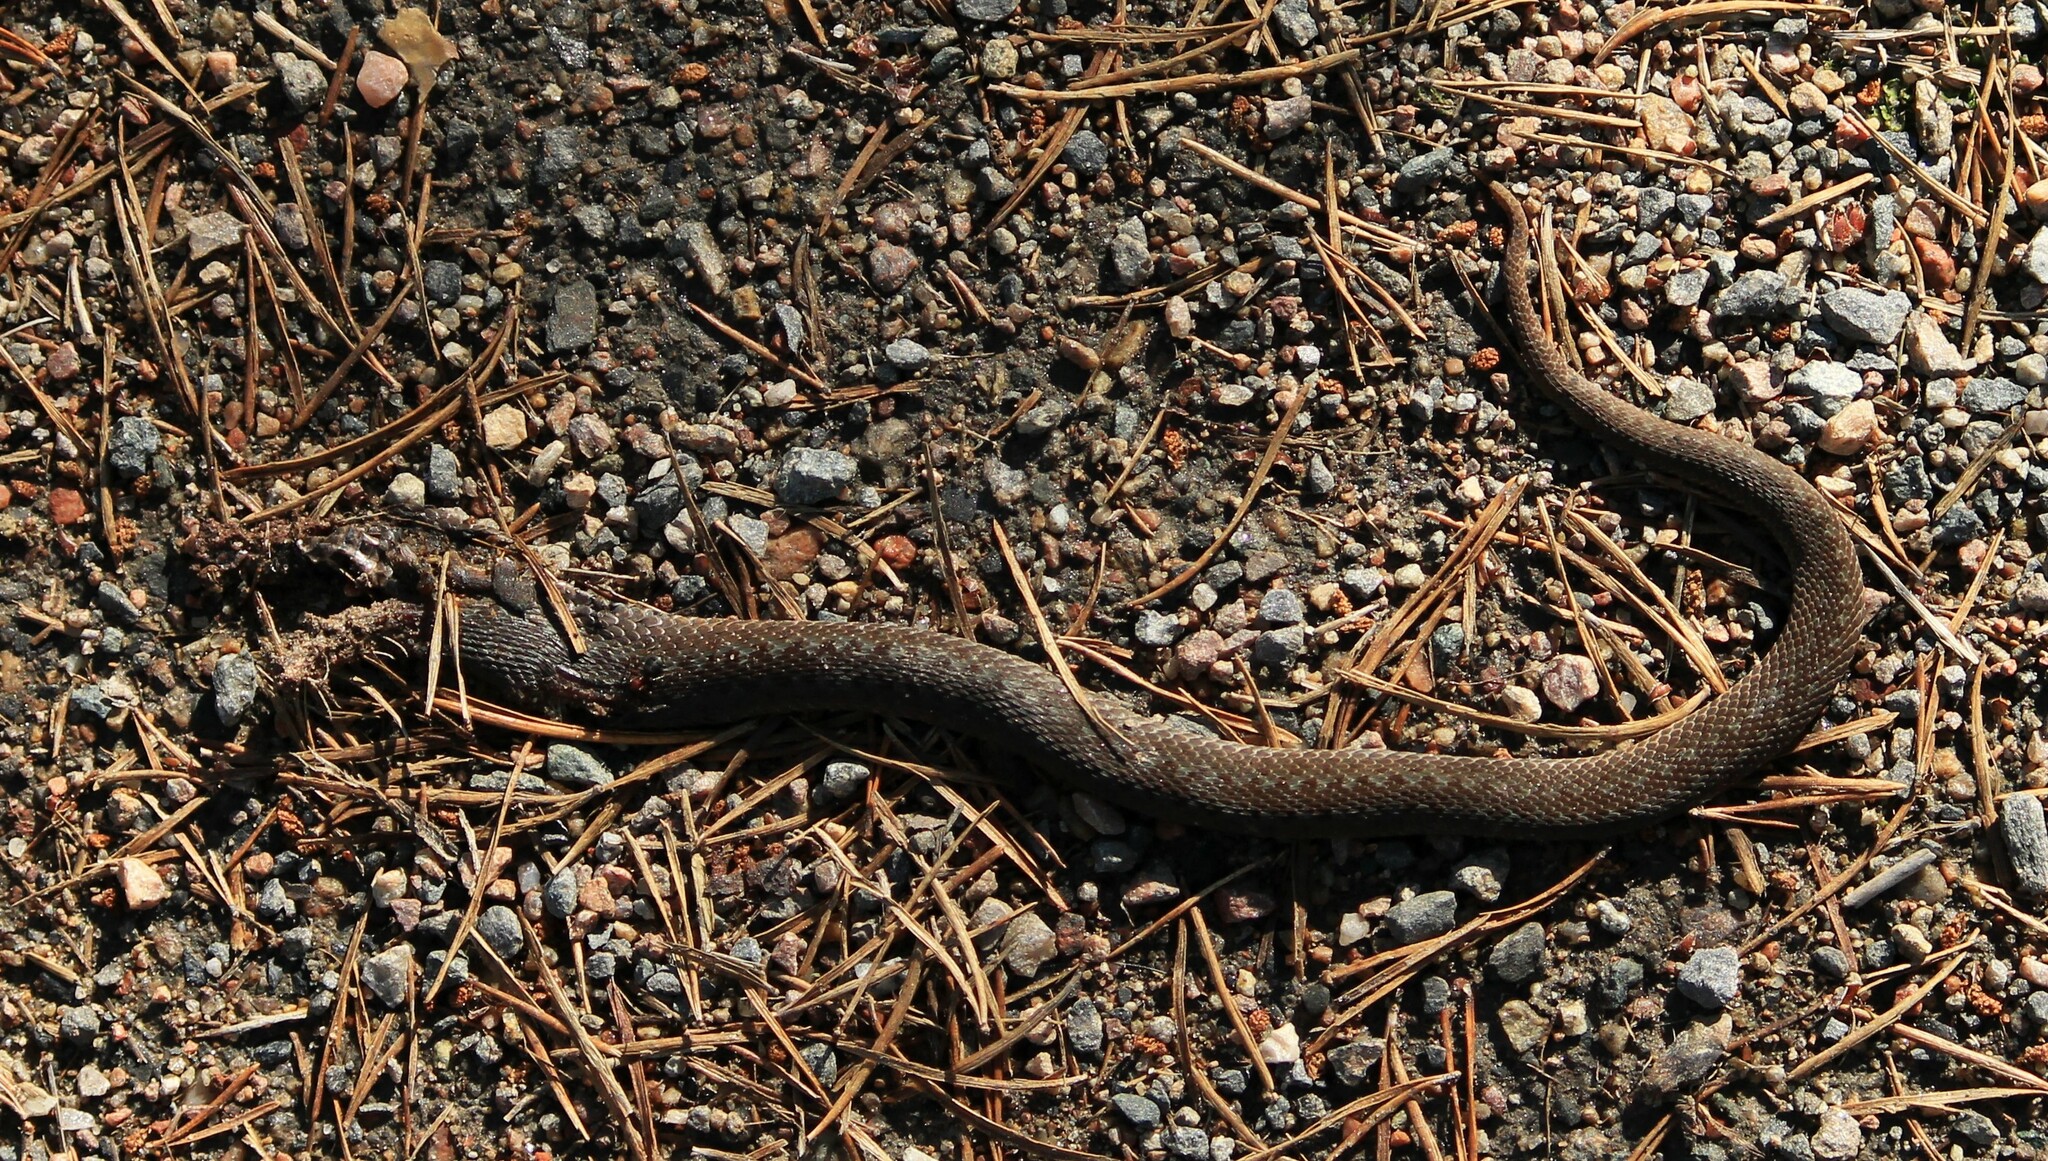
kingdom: Animalia
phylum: Chordata
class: Squamata
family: Viperidae
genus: Vipera
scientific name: Vipera berus
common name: Adder
